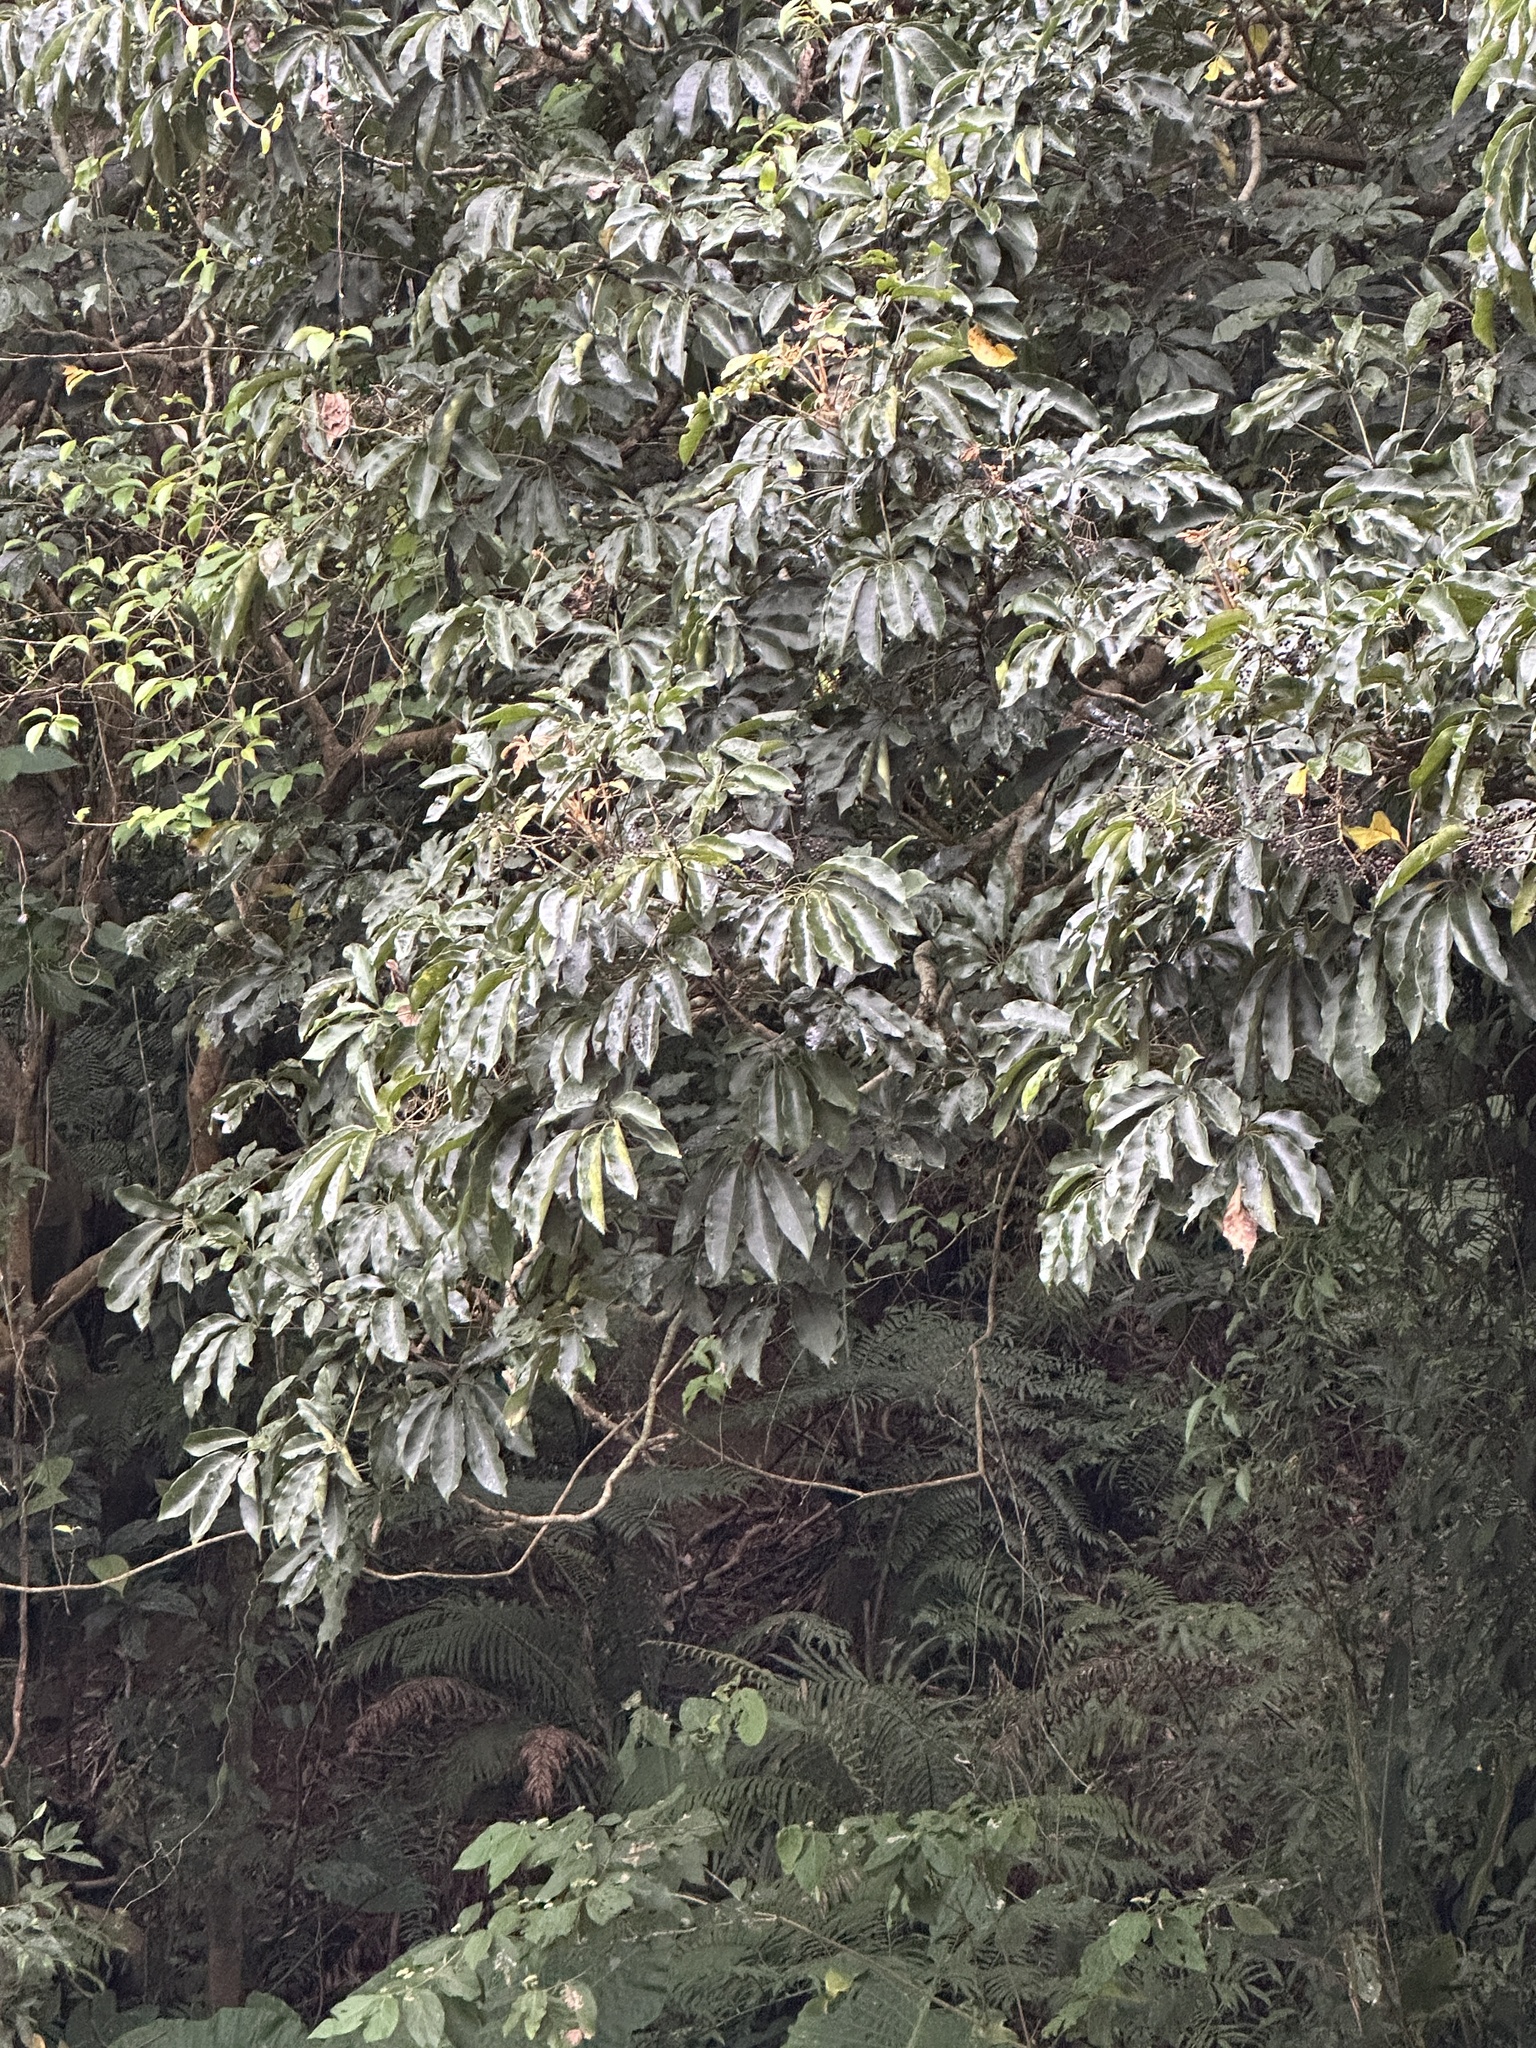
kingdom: Plantae
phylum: Tracheophyta
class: Magnoliopsida
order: Apiales
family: Araliaceae
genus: Heptapleurum
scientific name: Heptapleurum heptaphyllum
